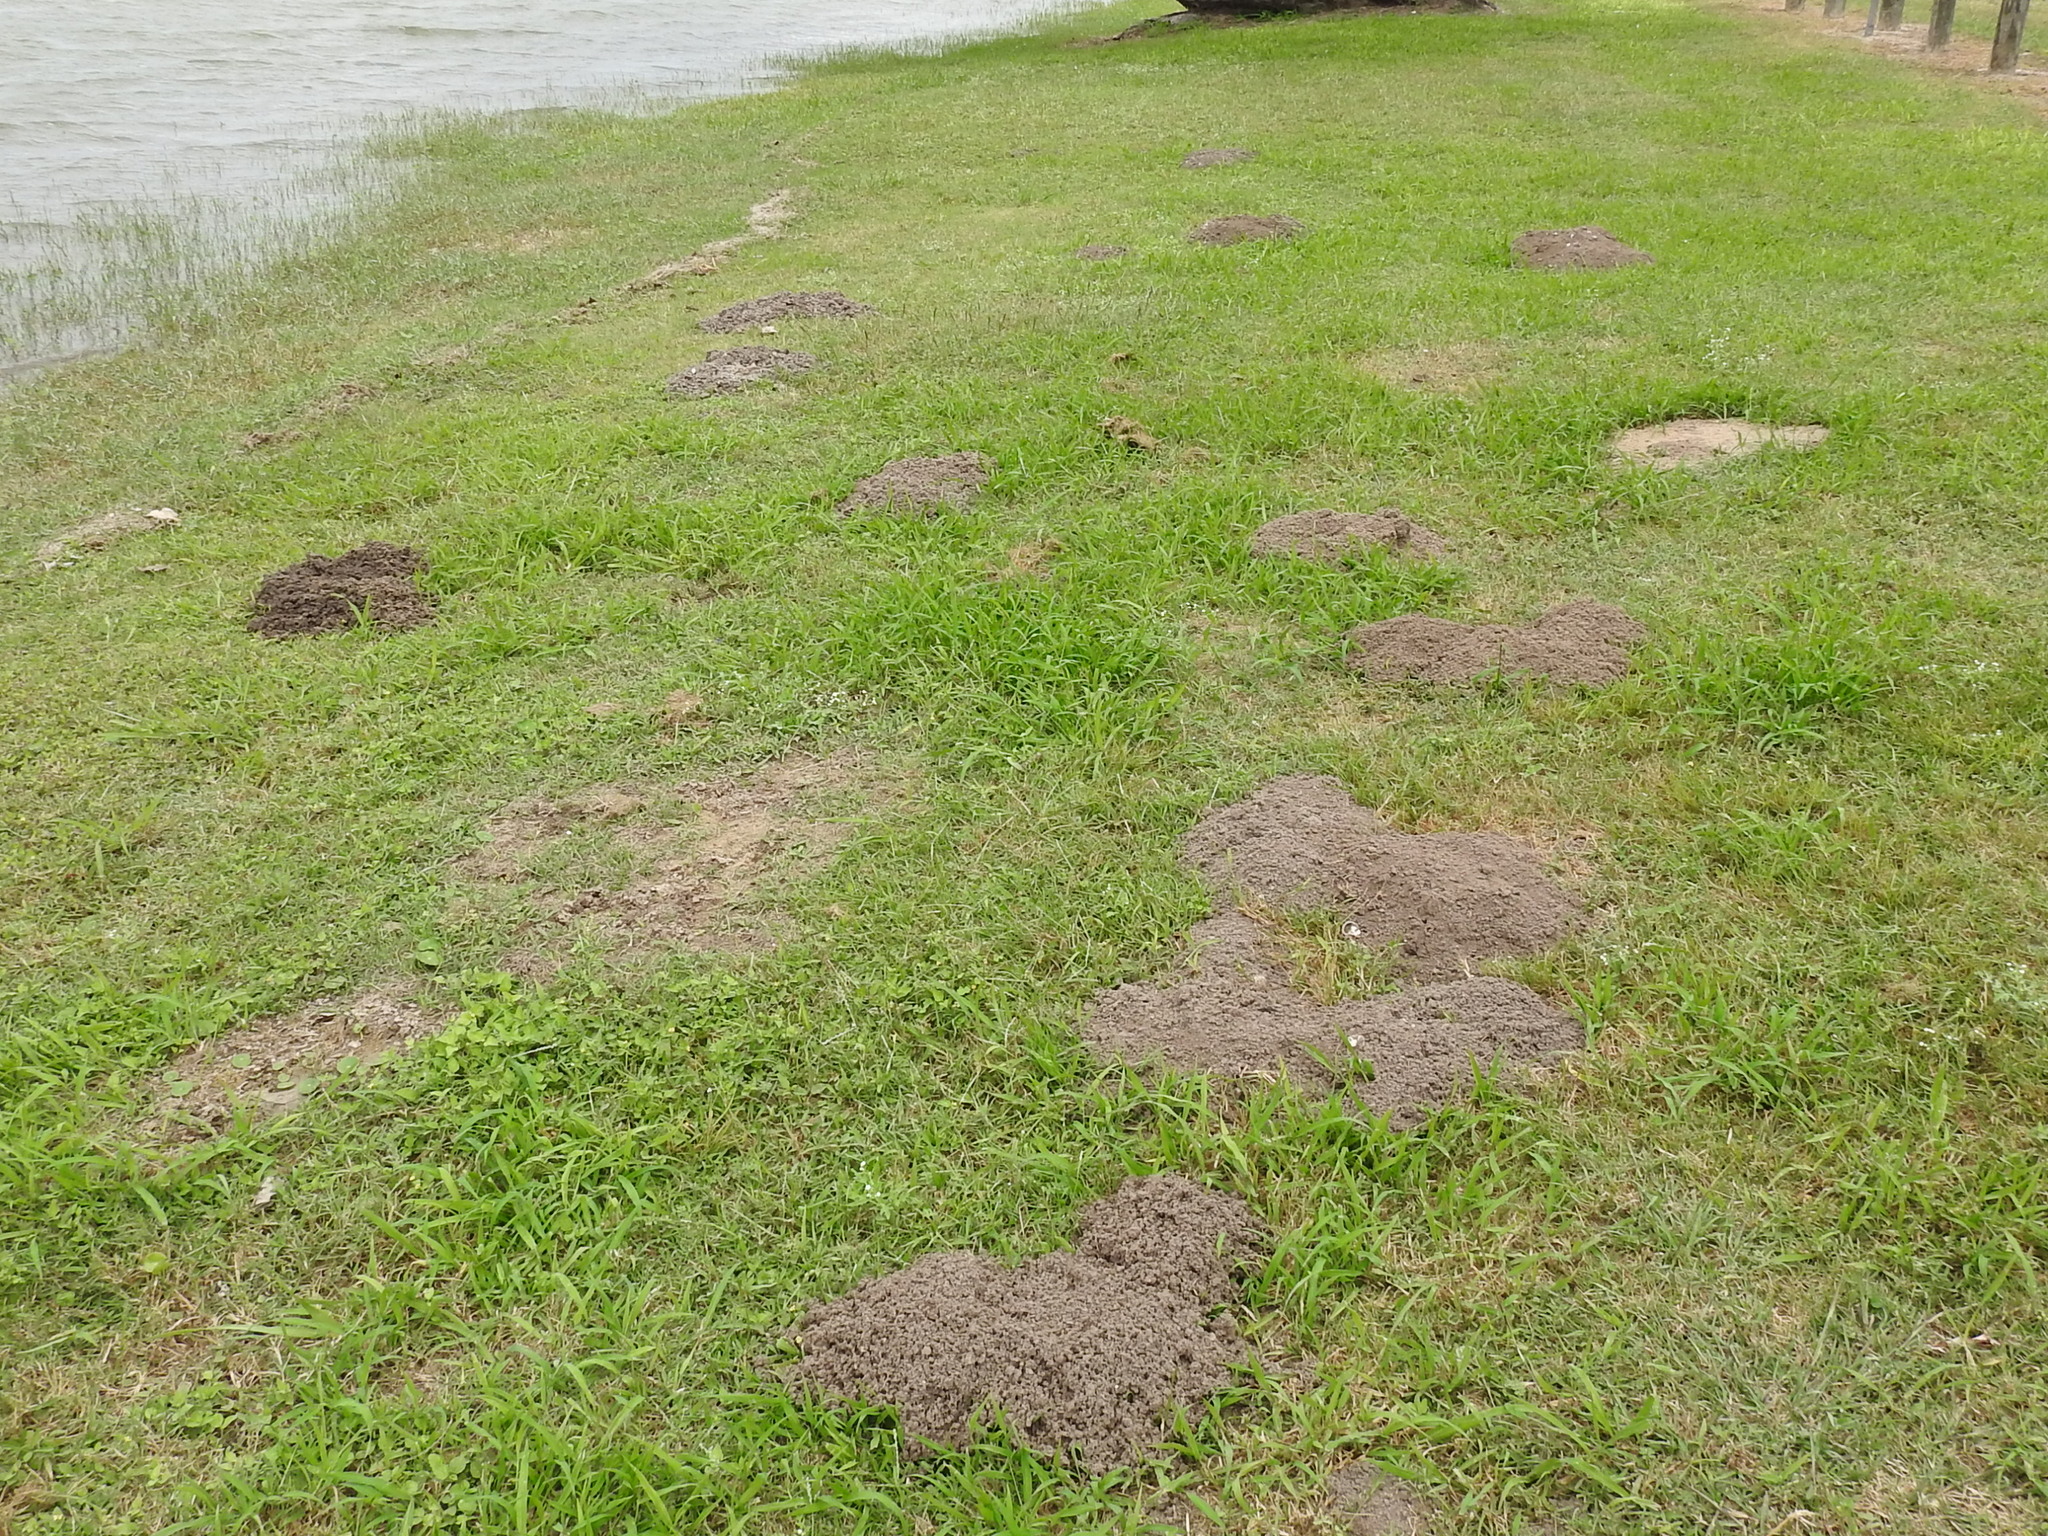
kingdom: Animalia
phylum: Chordata
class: Mammalia
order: Rodentia
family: Geomyidae
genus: Geomys
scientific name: Geomys personatus
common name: Texas pocket gopher
